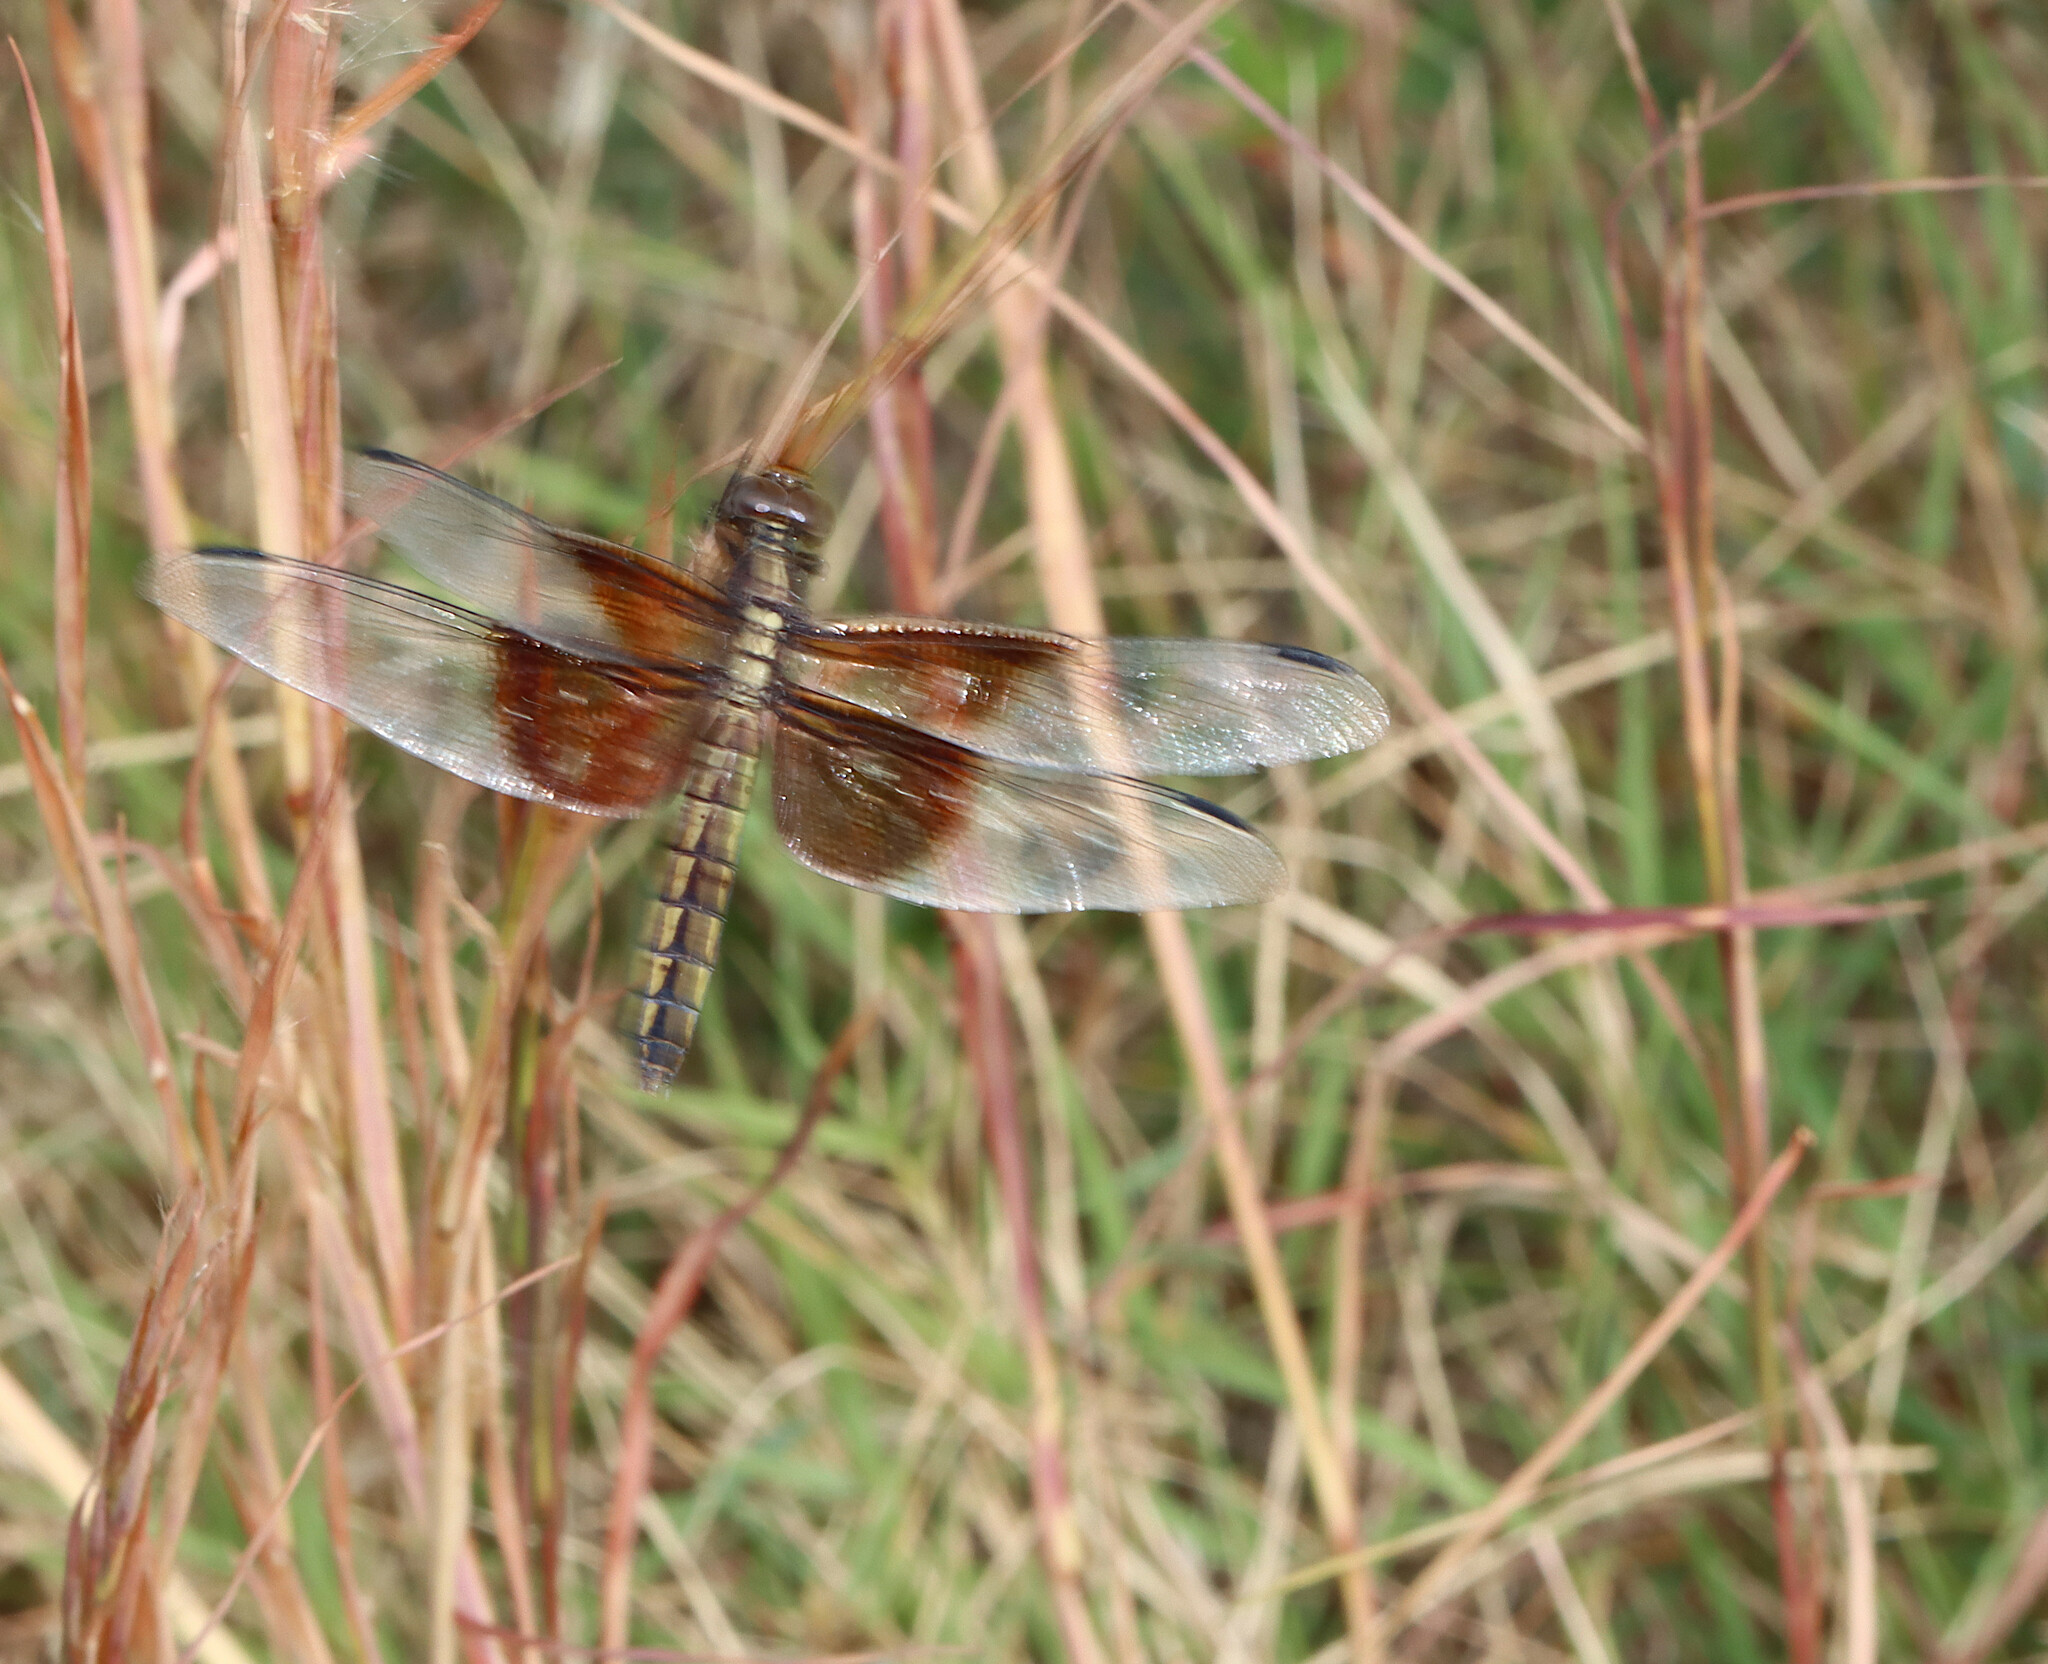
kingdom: Animalia
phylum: Arthropoda
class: Insecta
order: Odonata
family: Libellulidae
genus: Libellula
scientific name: Libellula luctuosa
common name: Widow skimmer
